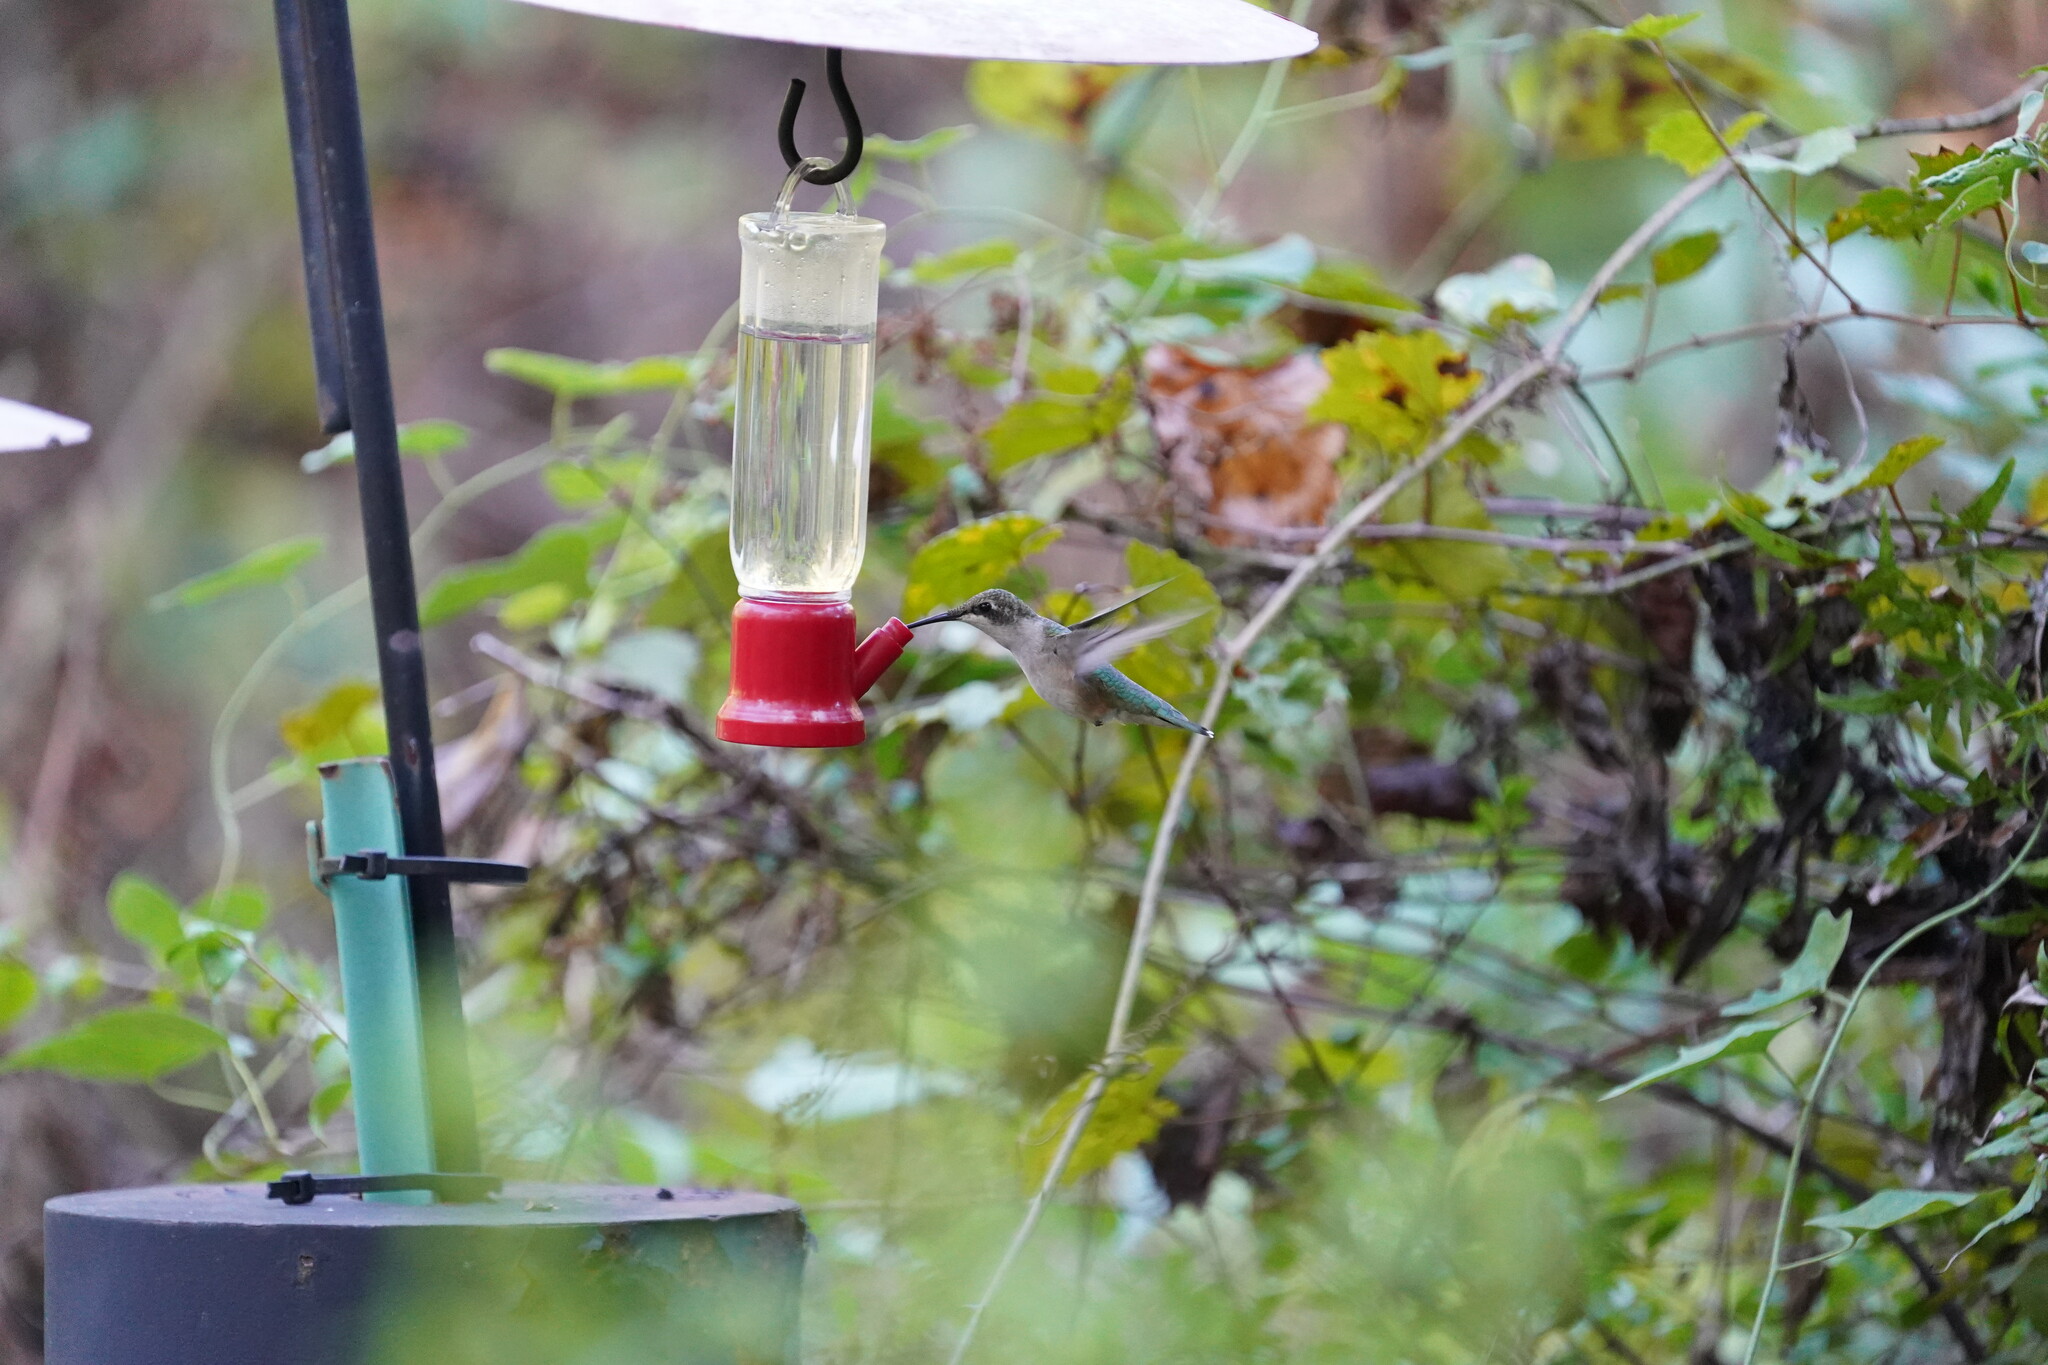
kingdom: Animalia
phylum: Chordata
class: Aves
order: Apodiformes
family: Trochilidae
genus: Archilochus
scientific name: Archilochus colubris
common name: Ruby-throated hummingbird
